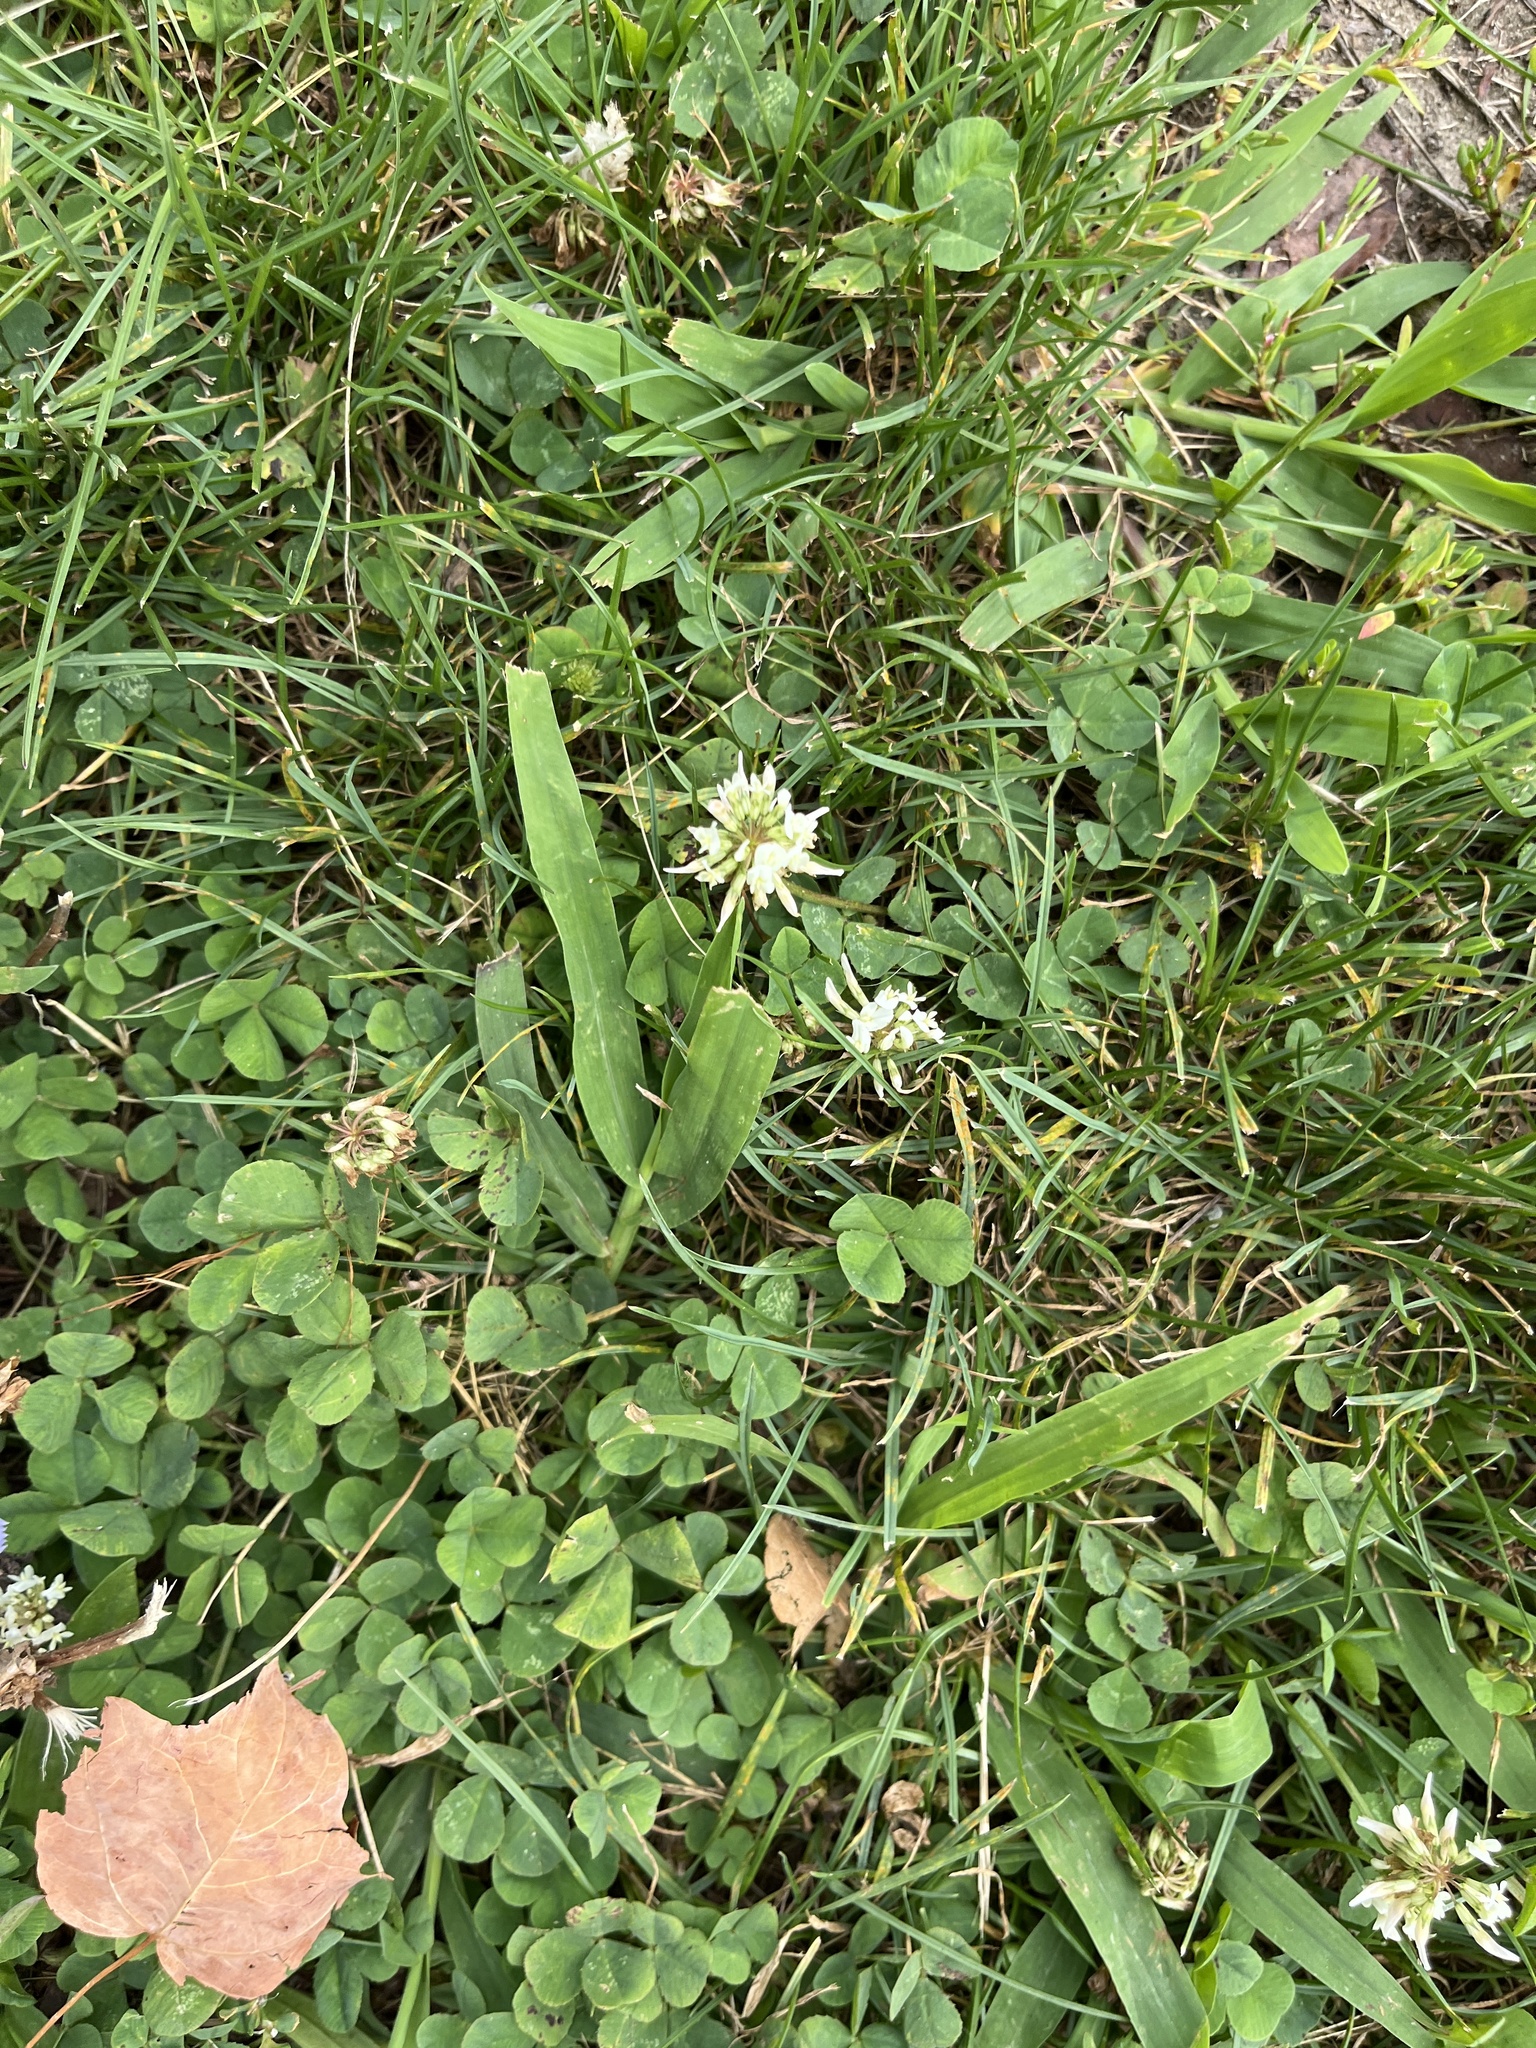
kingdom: Plantae
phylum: Tracheophyta
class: Magnoliopsida
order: Fabales
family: Fabaceae
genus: Trifolium
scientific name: Trifolium repens
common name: White clover
